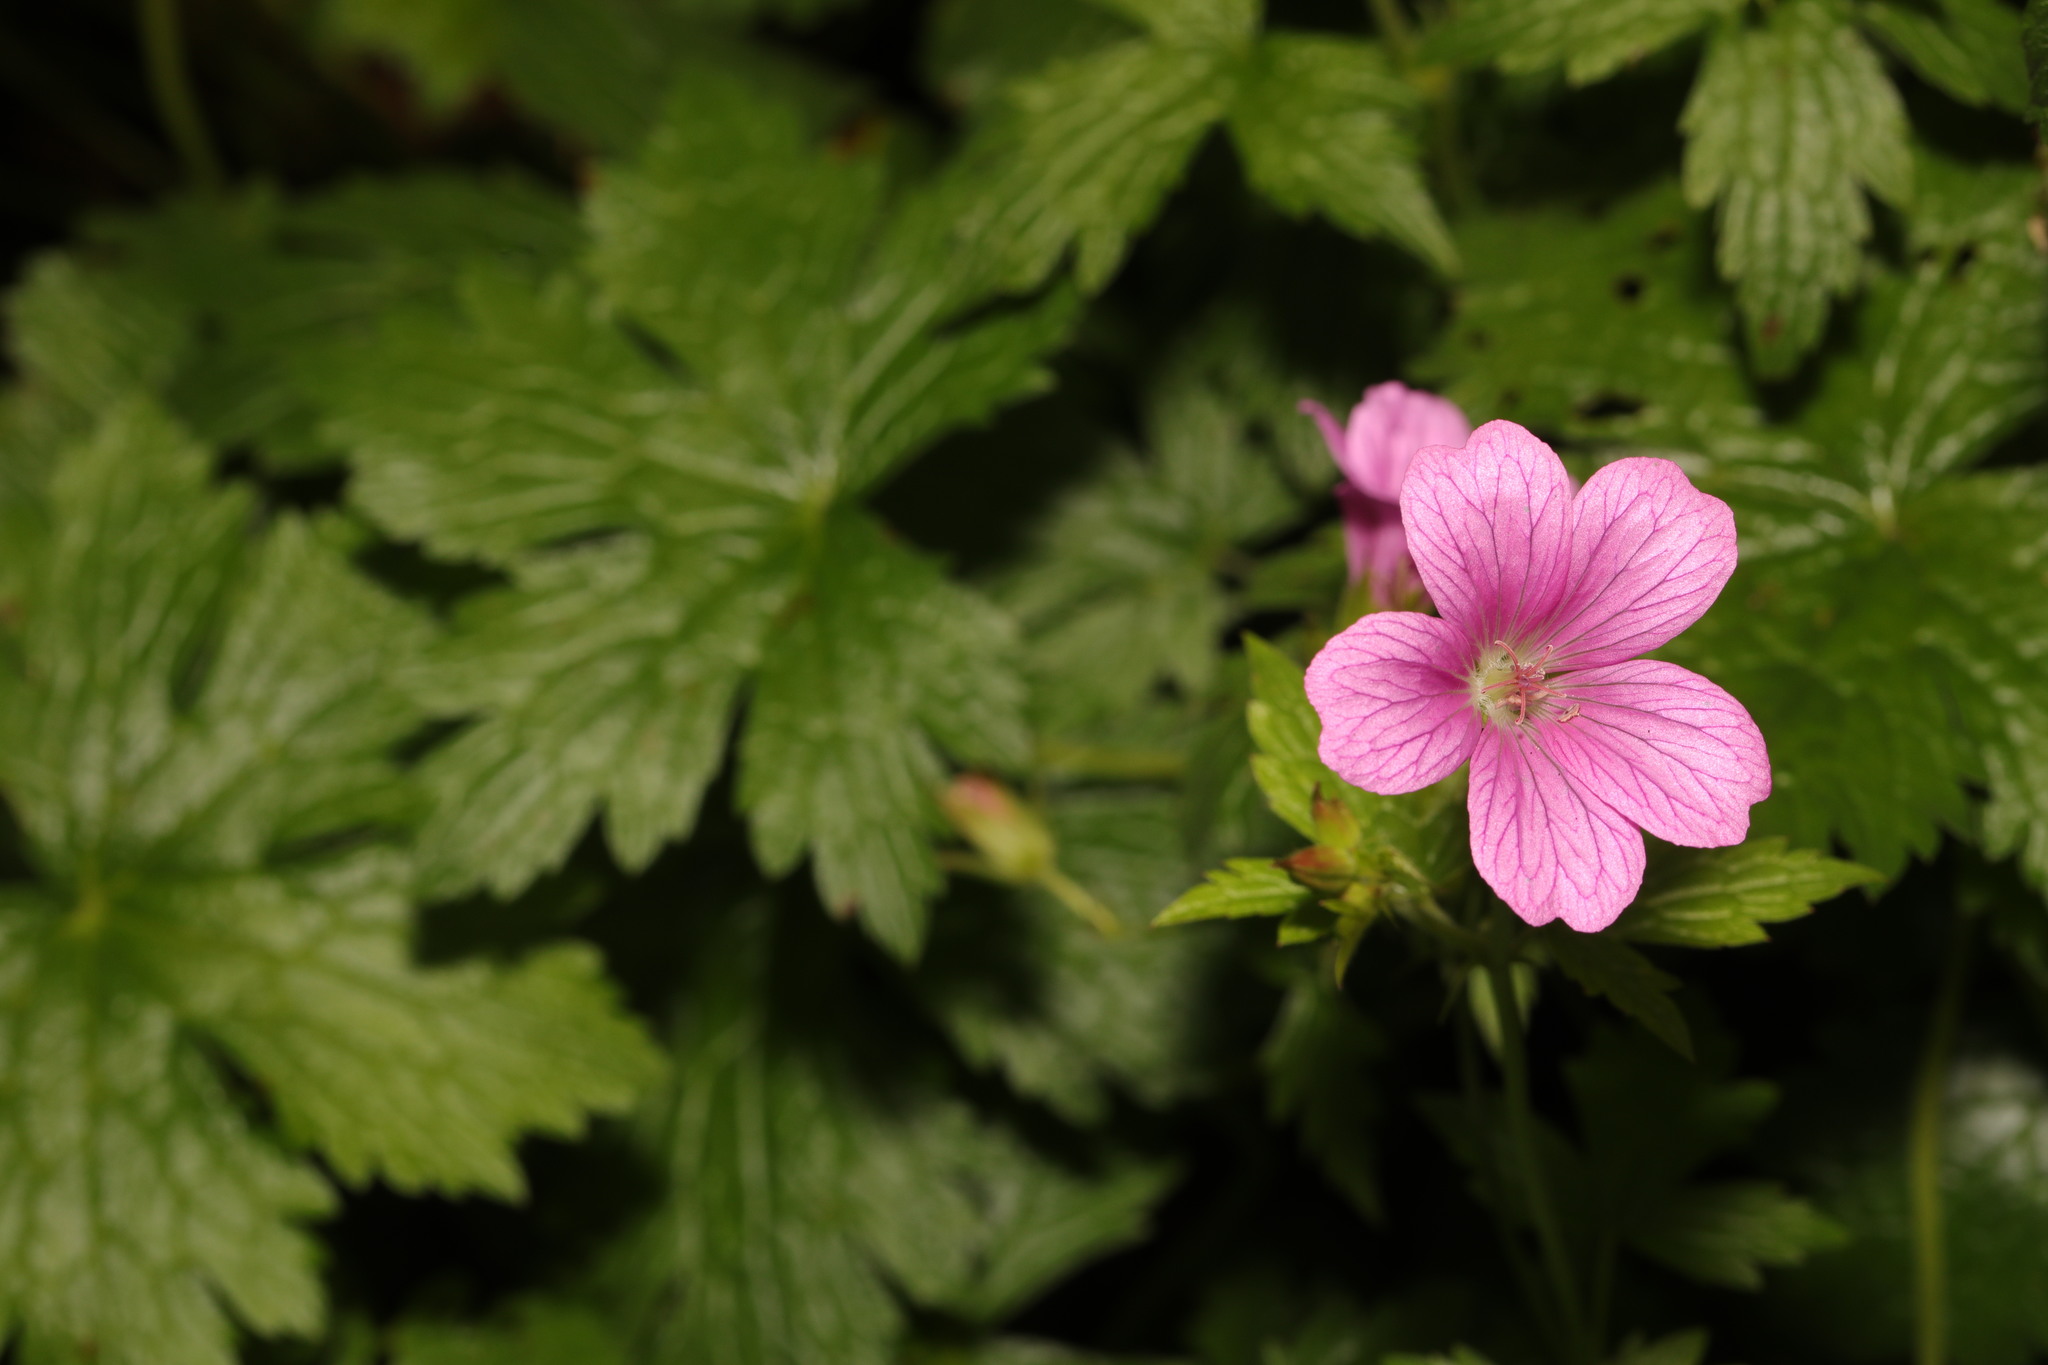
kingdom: Plantae
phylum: Tracheophyta
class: Magnoliopsida
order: Geraniales
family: Geraniaceae
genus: Geranium
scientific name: Geranium oxonianum
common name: Druce's crane's-bill
